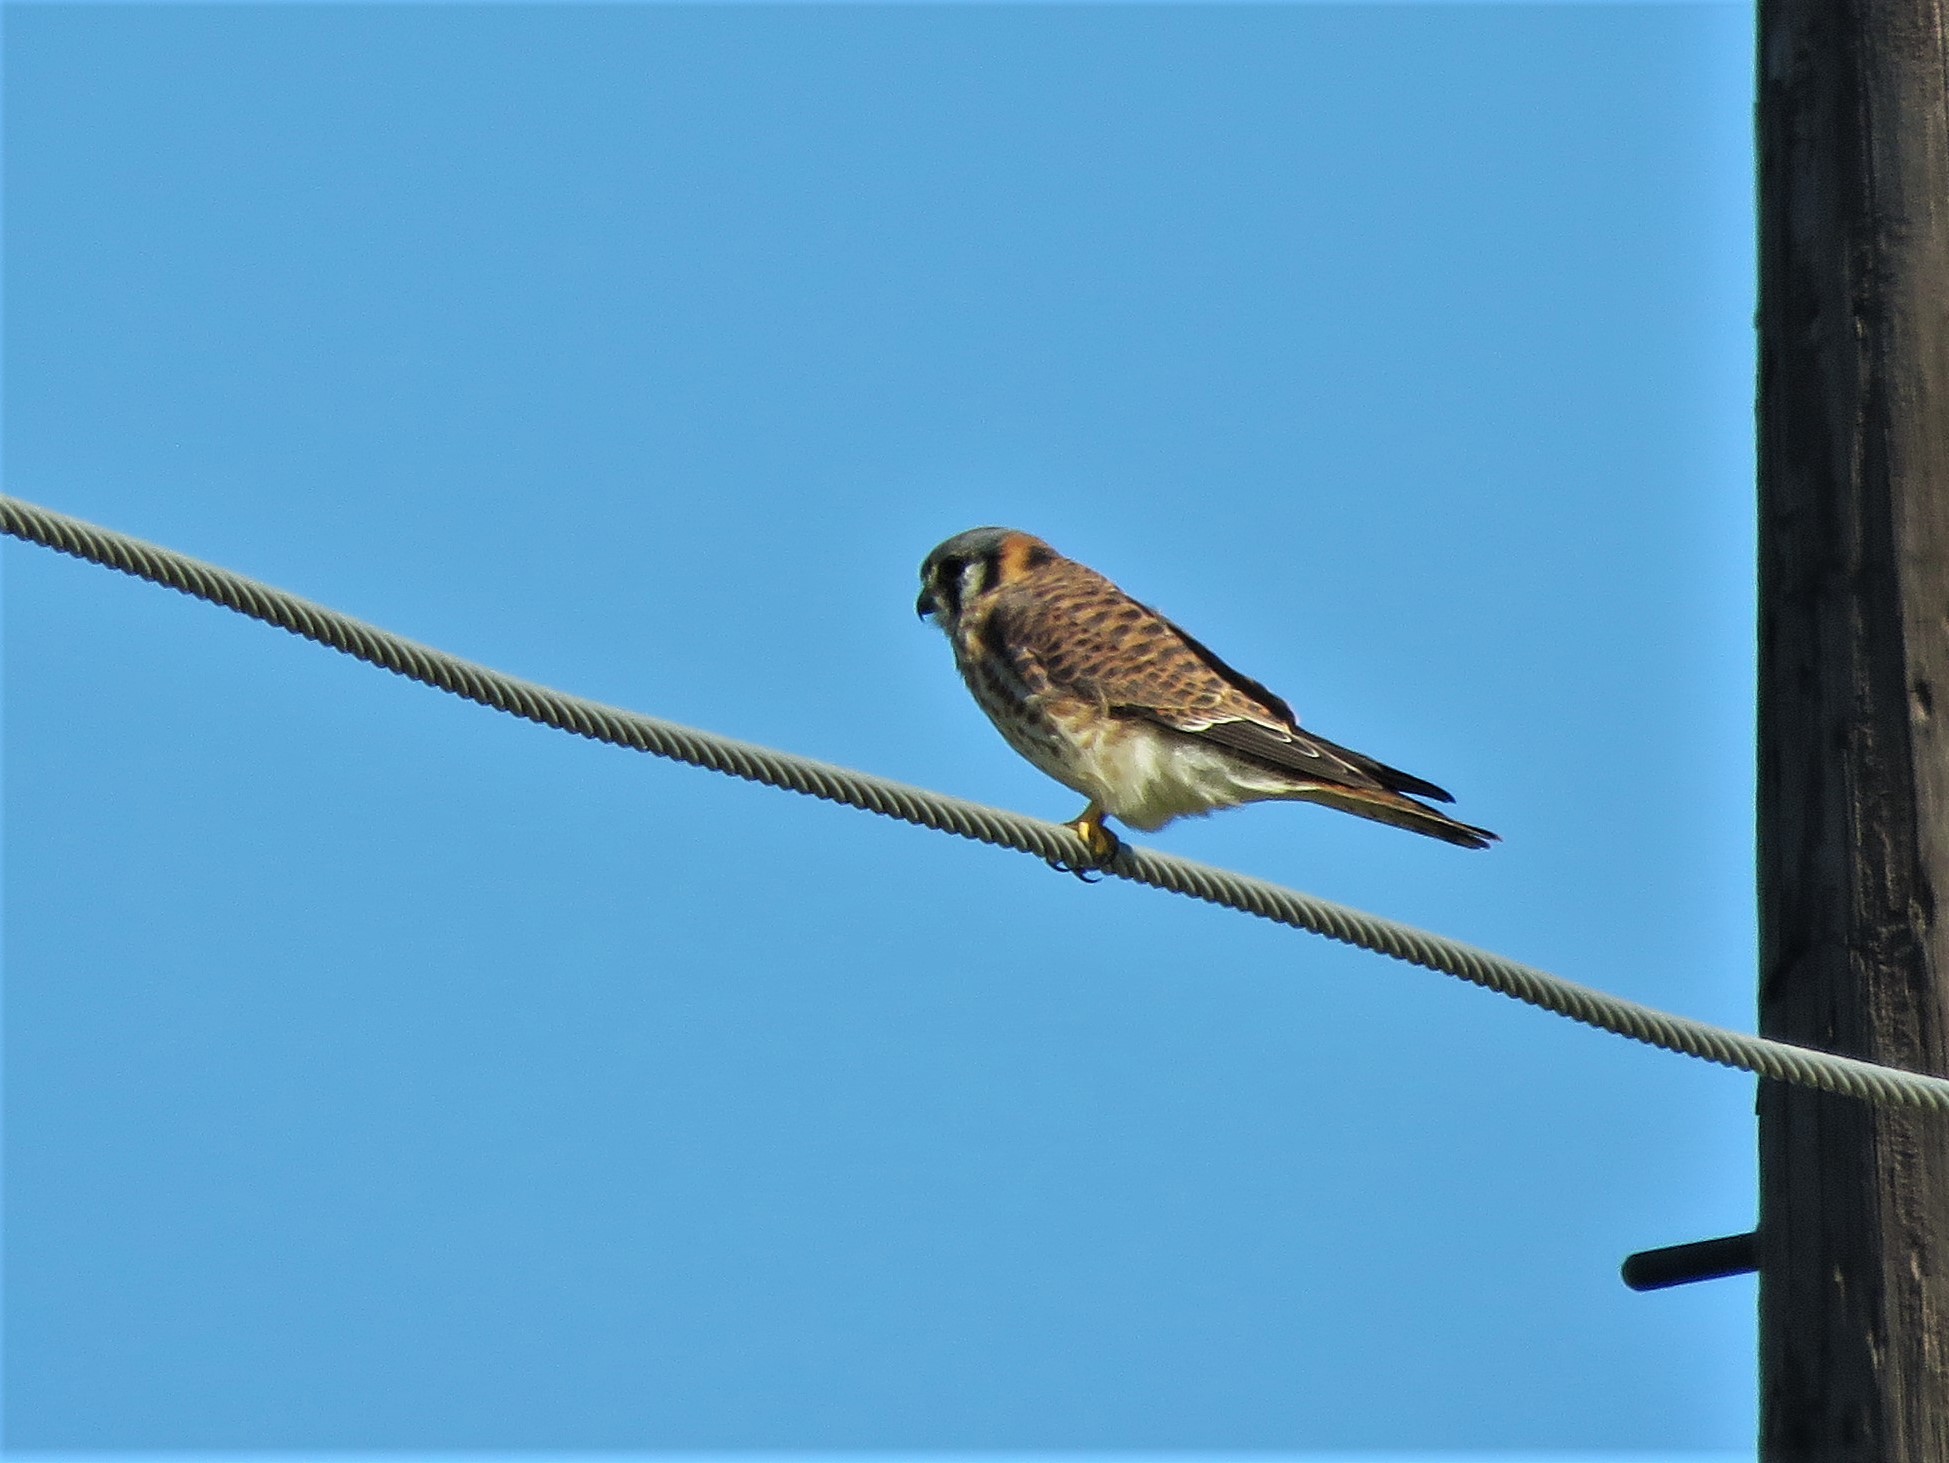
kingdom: Animalia
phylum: Chordata
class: Aves
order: Falconiformes
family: Falconidae
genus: Falco
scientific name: Falco sparverius
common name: American kestrel
